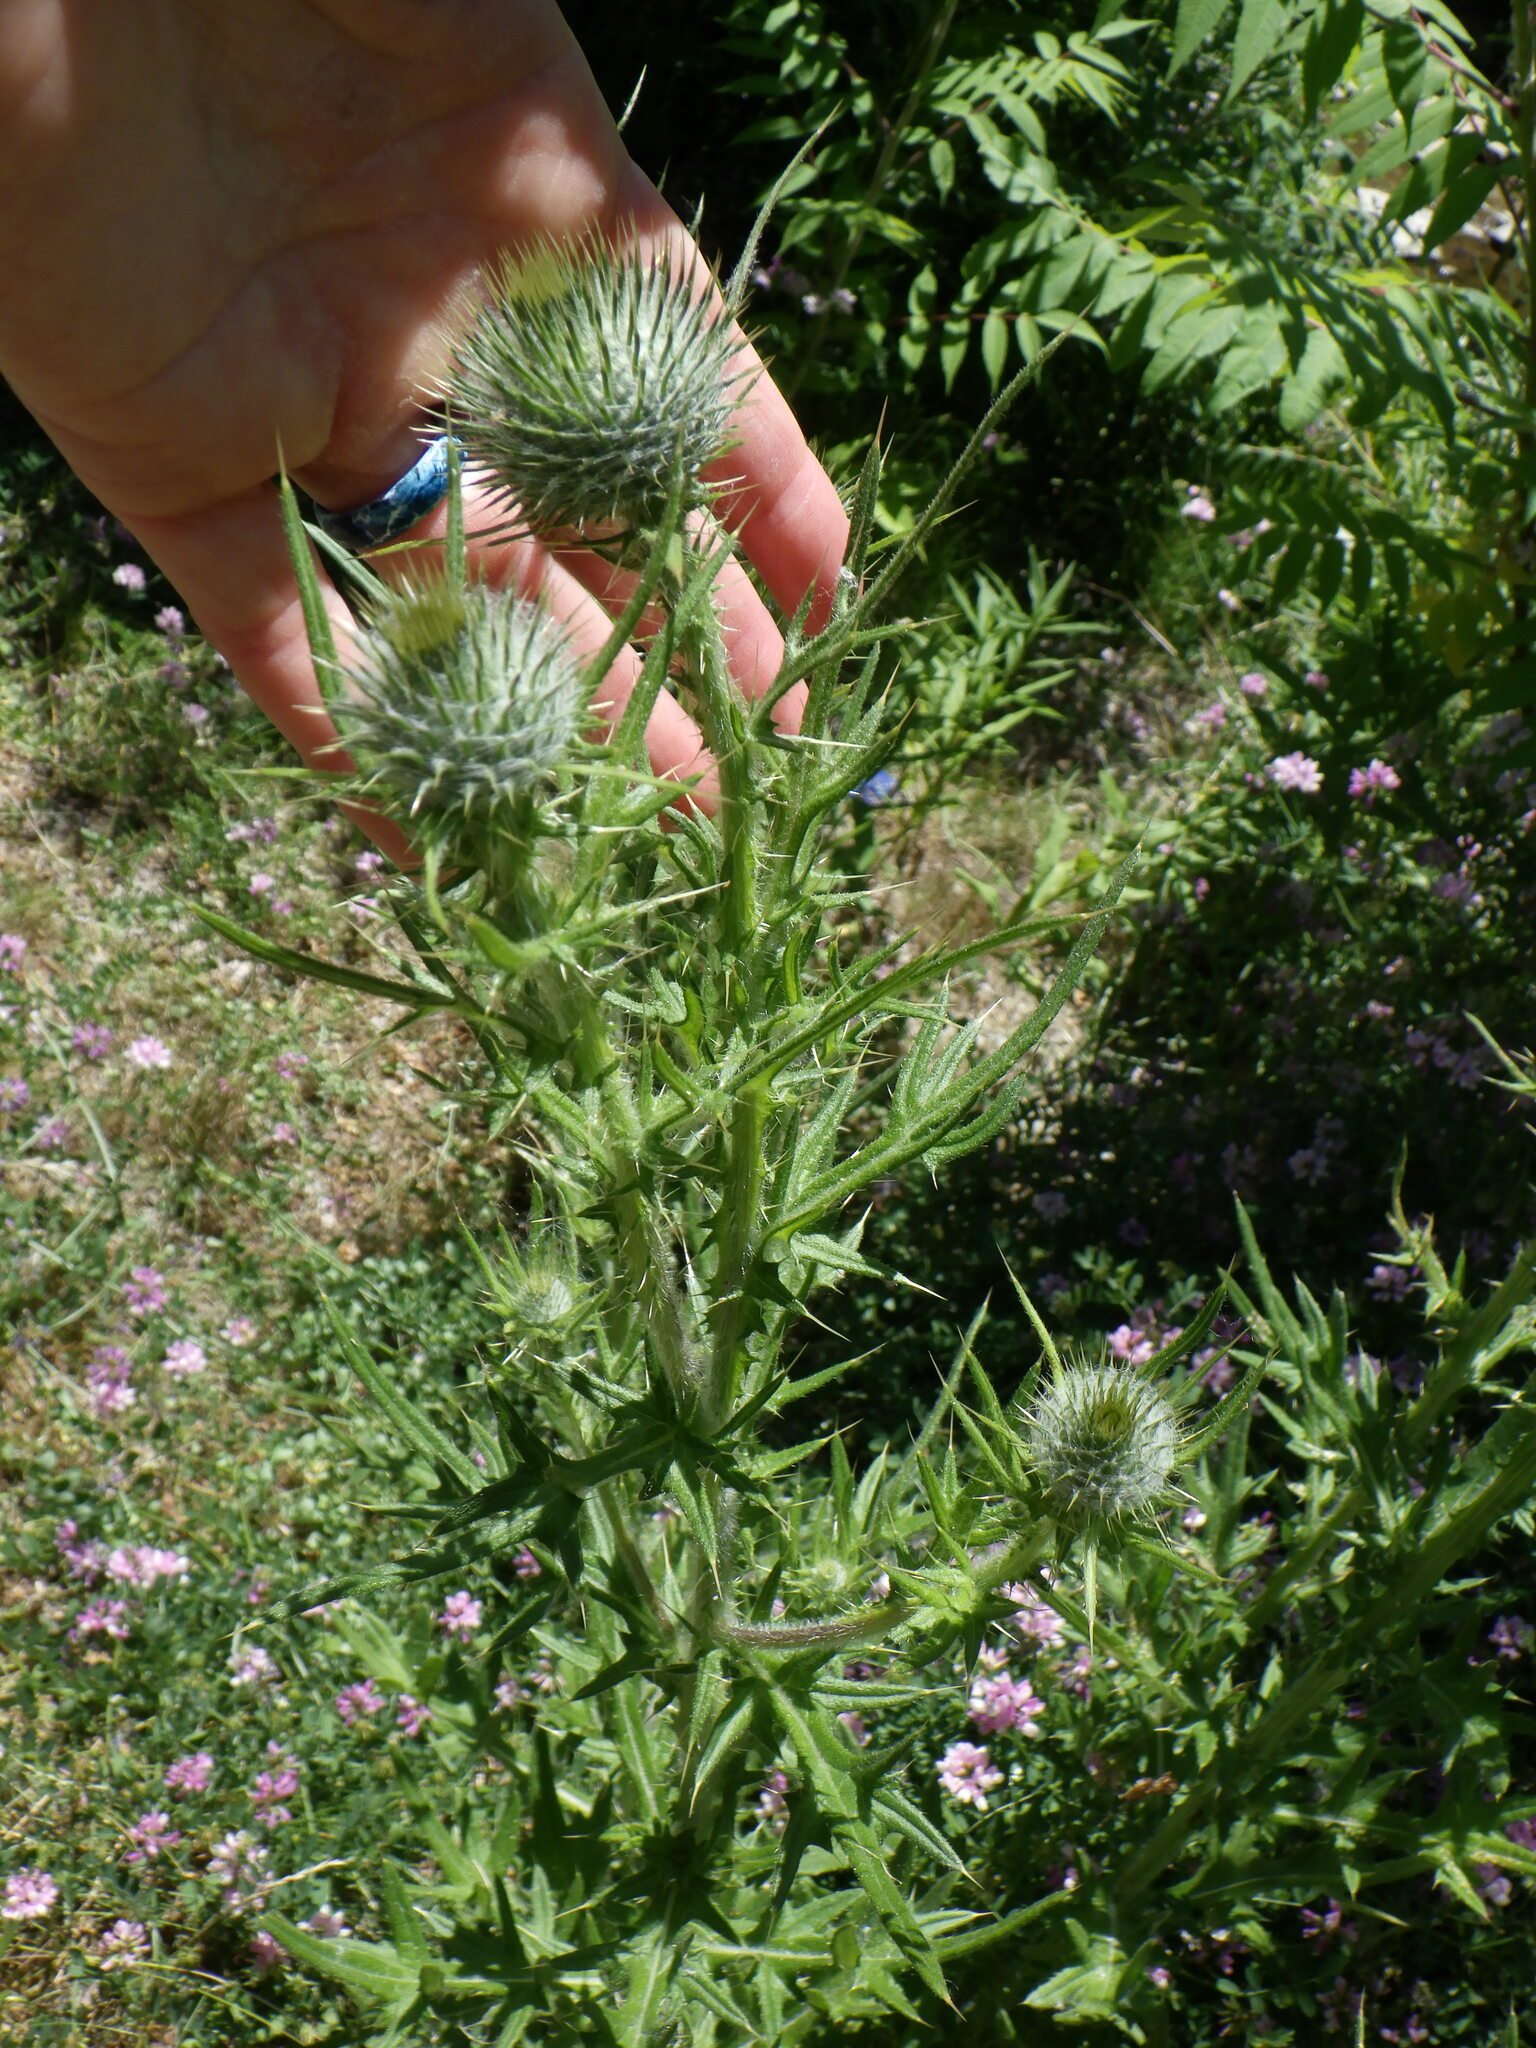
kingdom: Plantae
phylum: Tracheophyta
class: Magnoliopsida
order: Asterales
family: Asteraceae
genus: Cirsium
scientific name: Cirsium vulgare
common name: Bull thistle
